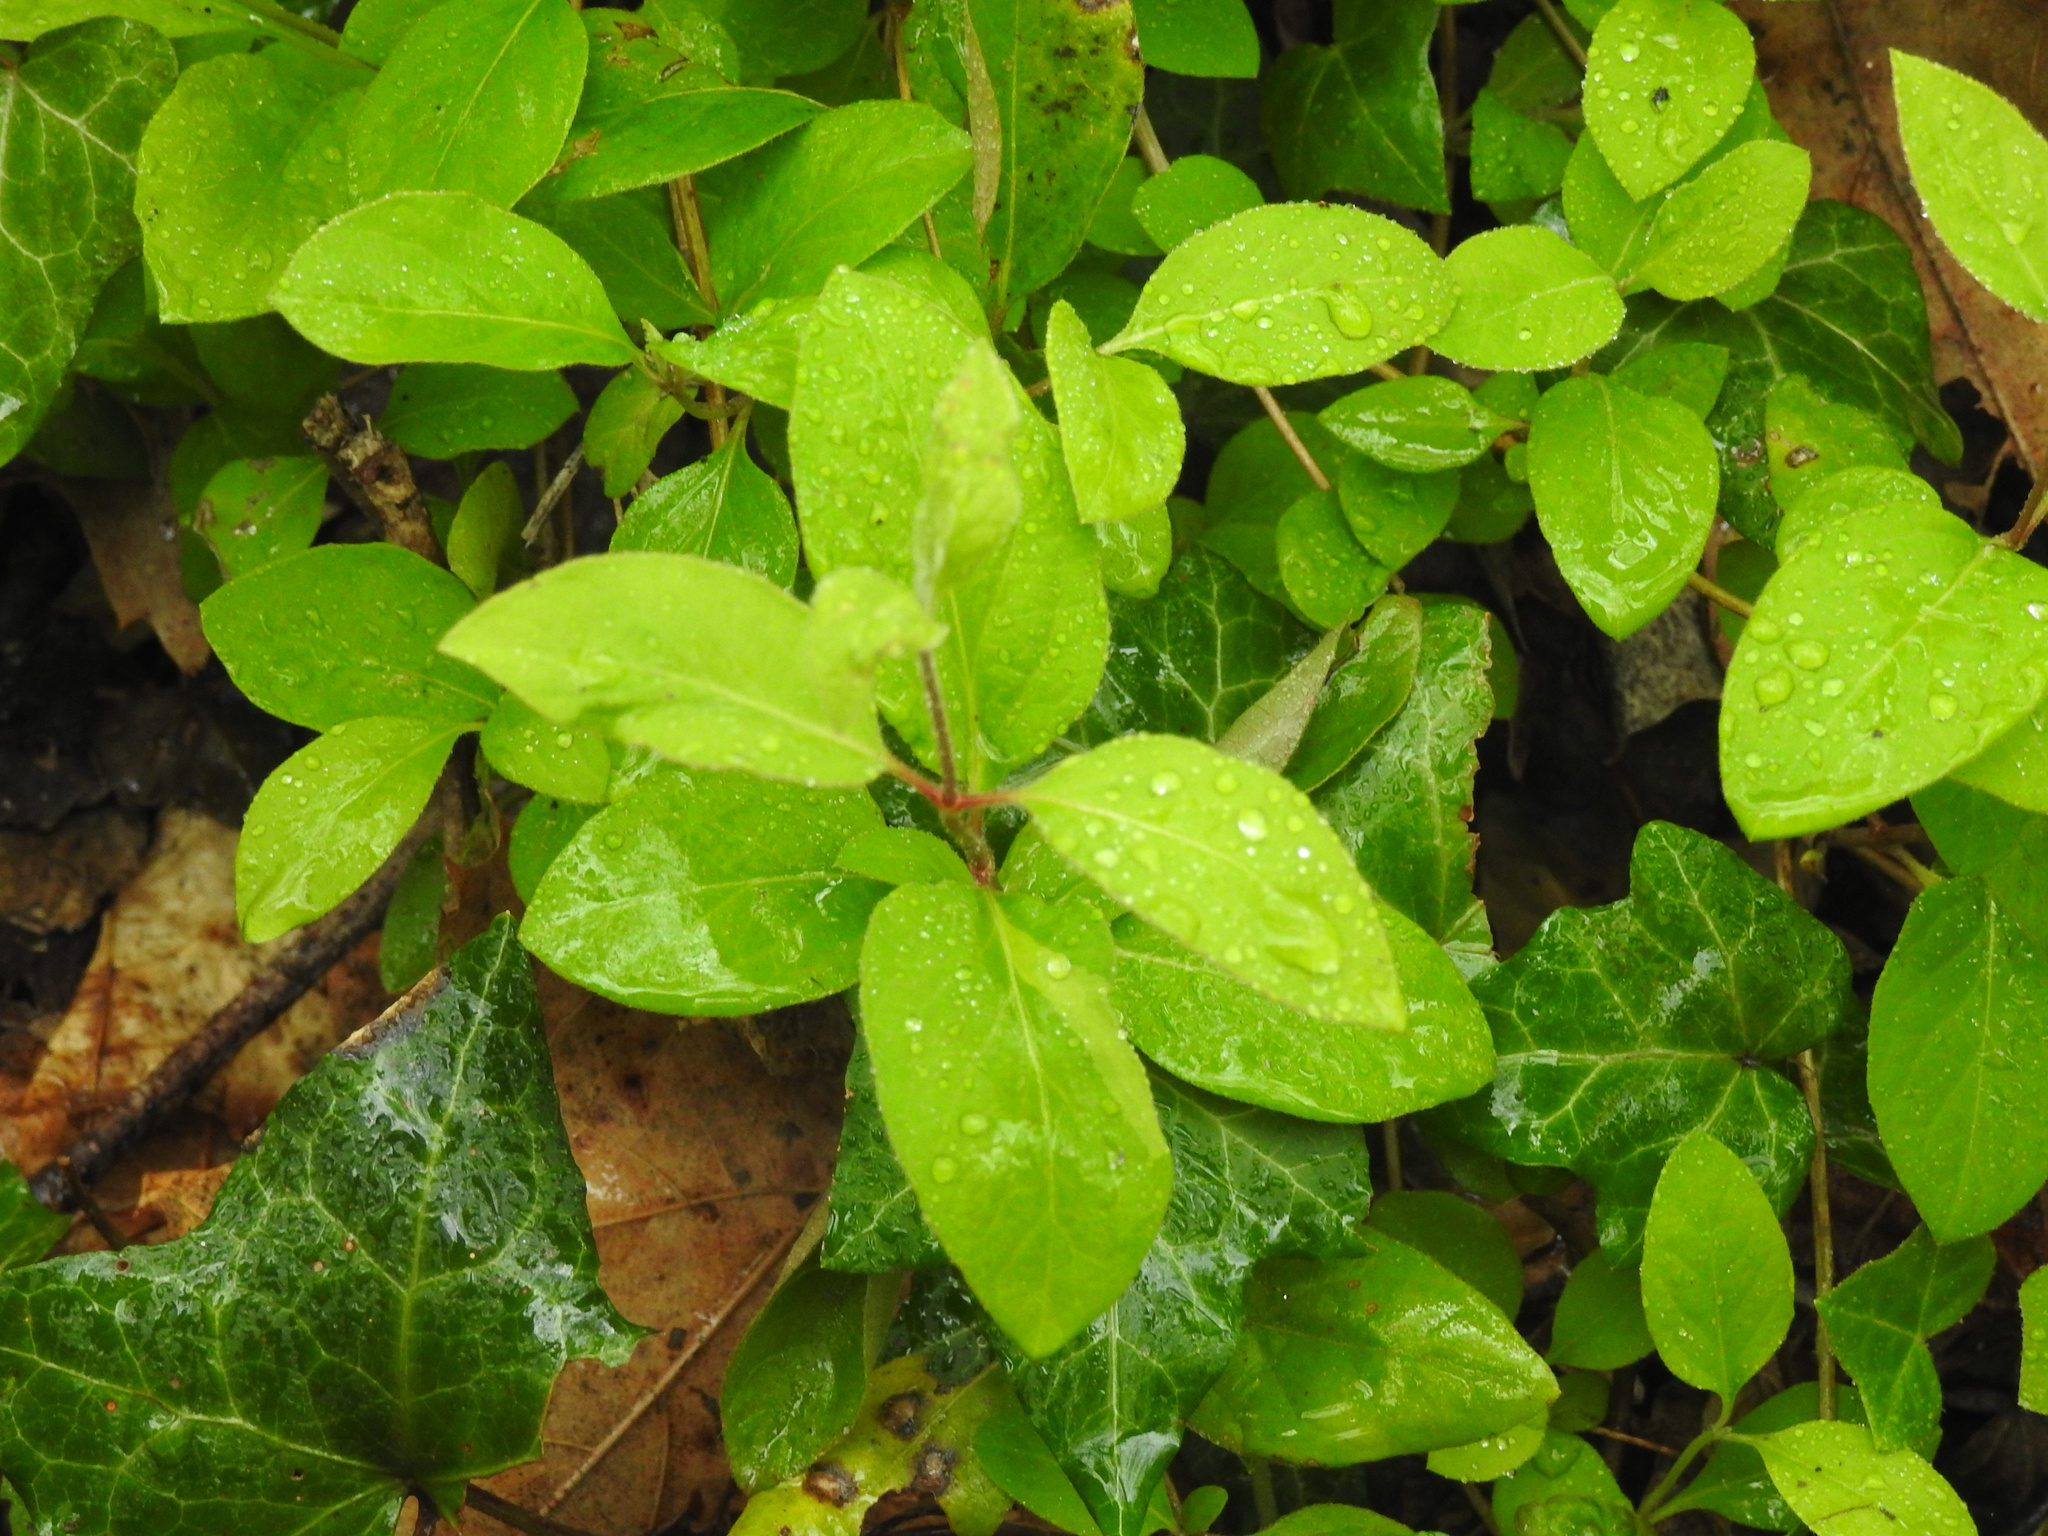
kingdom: Plantae
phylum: Tracheophyta
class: Magnoliopsida
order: Dipsacales
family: Caprifoliaceae
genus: Lonicera
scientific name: Lonicera japonica
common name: Japanese honeysuckle
